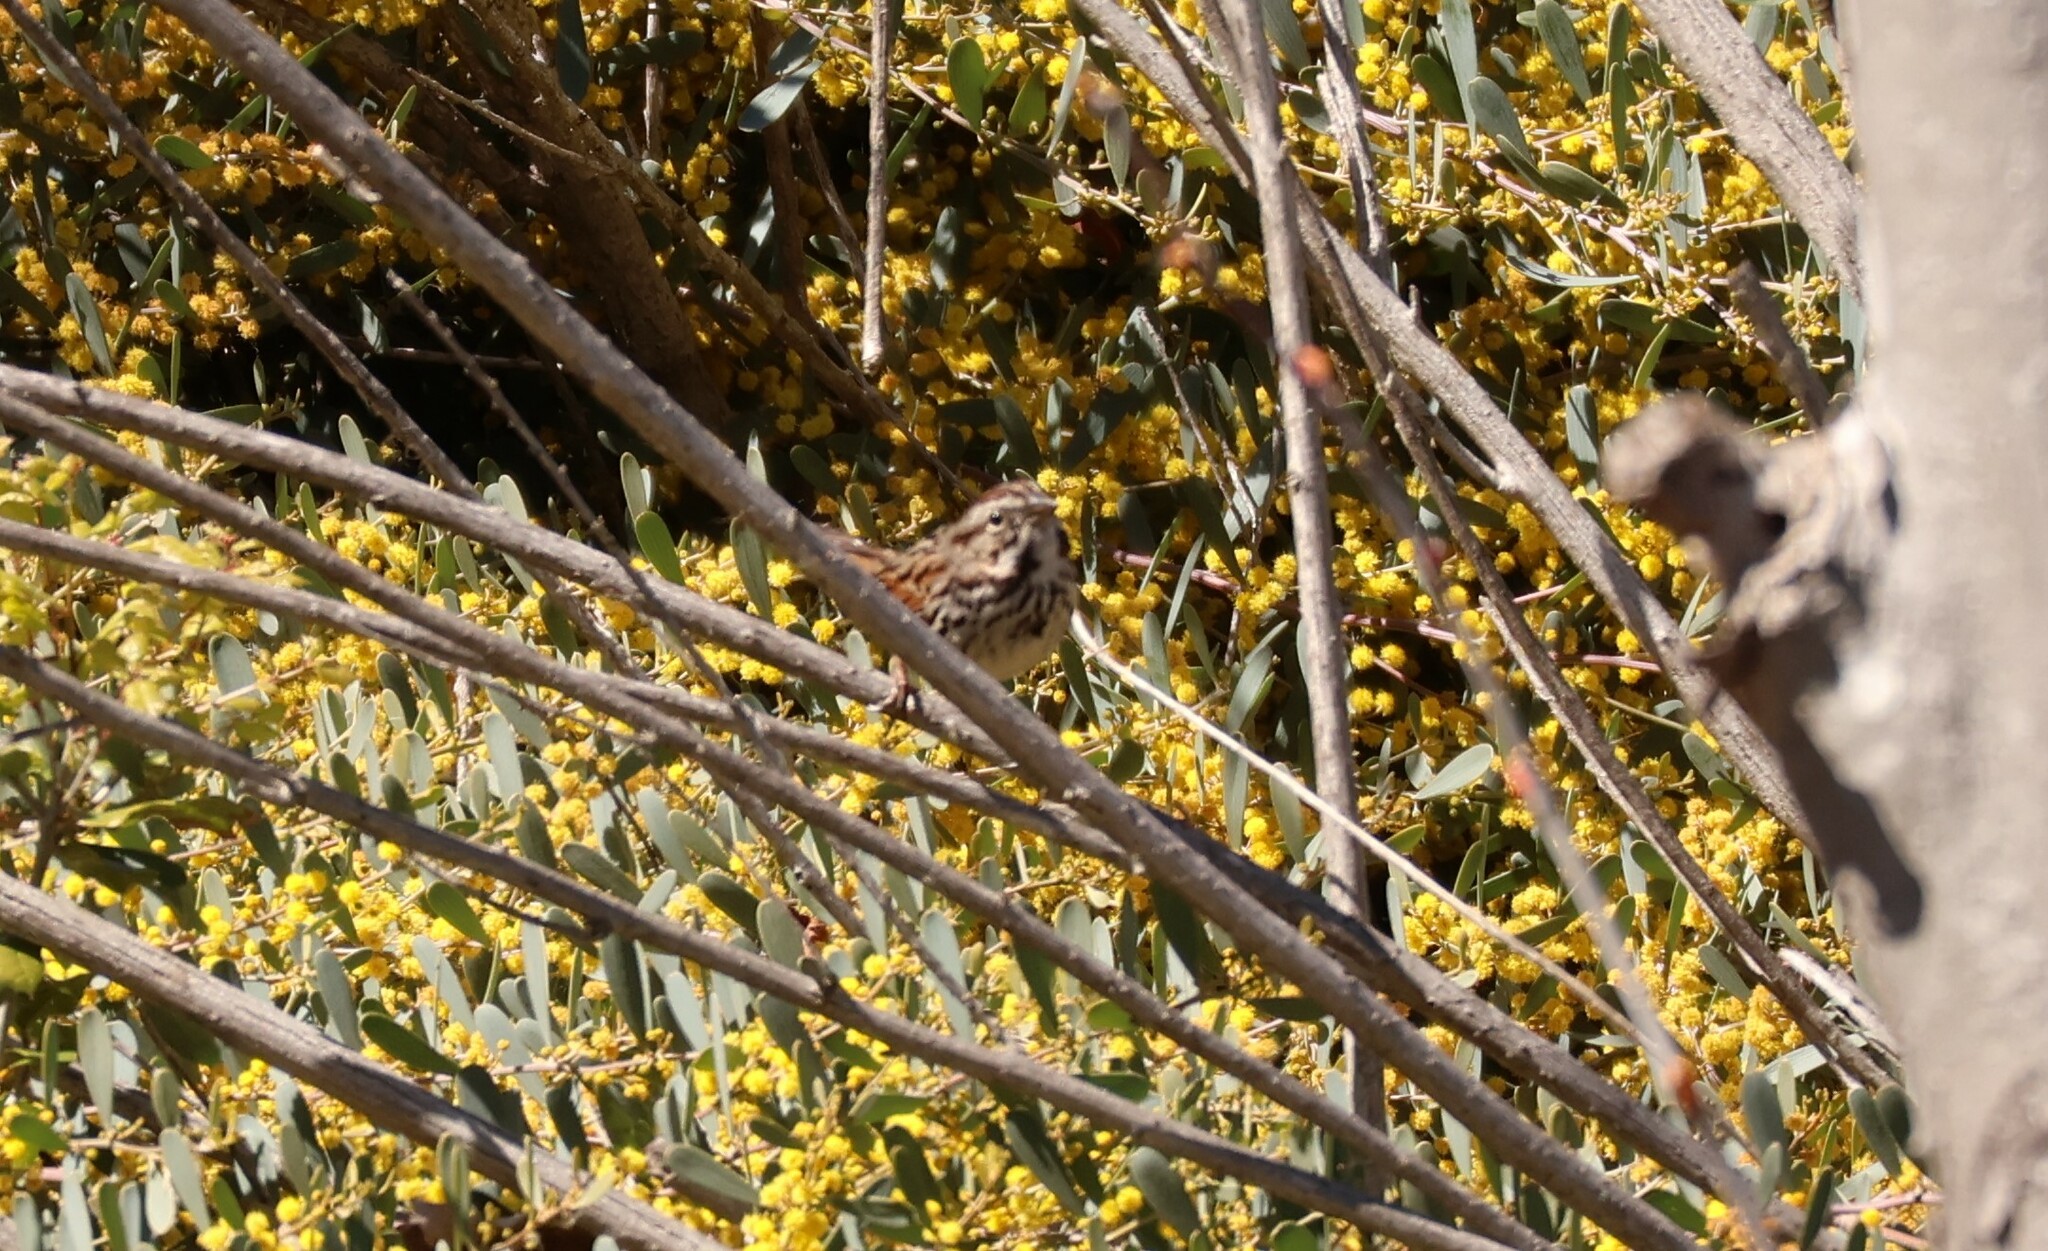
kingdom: Animalia
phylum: Chordata
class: Aves
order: Passeriformes
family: Passerellidae
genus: Melospiza
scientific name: Melospiza melodia
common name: Song sparrow
